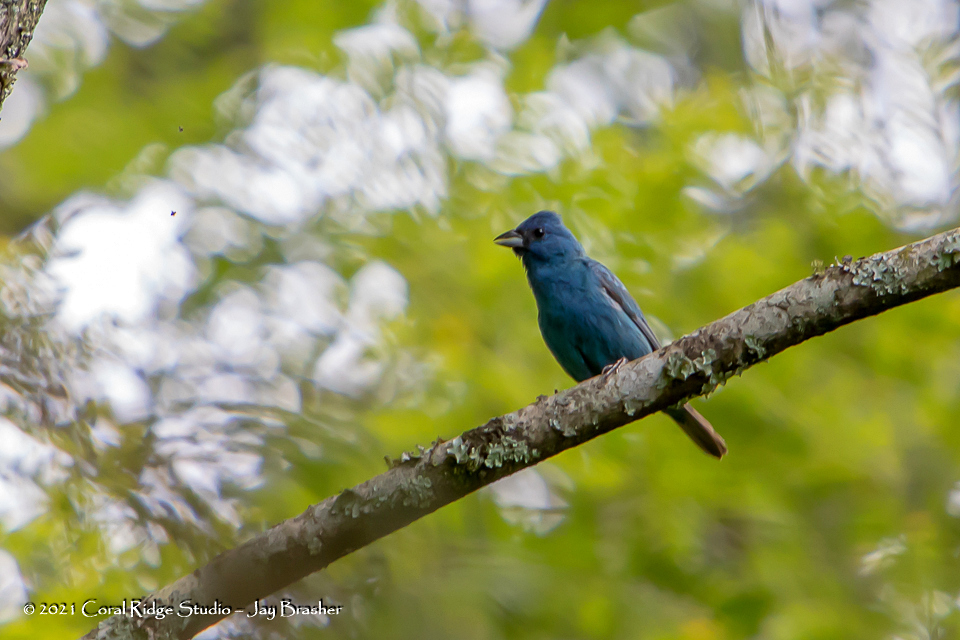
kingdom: Animalia
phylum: Chordata
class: Aves
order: Passeriformes
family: Cardinalidae
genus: Passerina
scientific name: Passerina cyanea
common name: Indigo bunting
